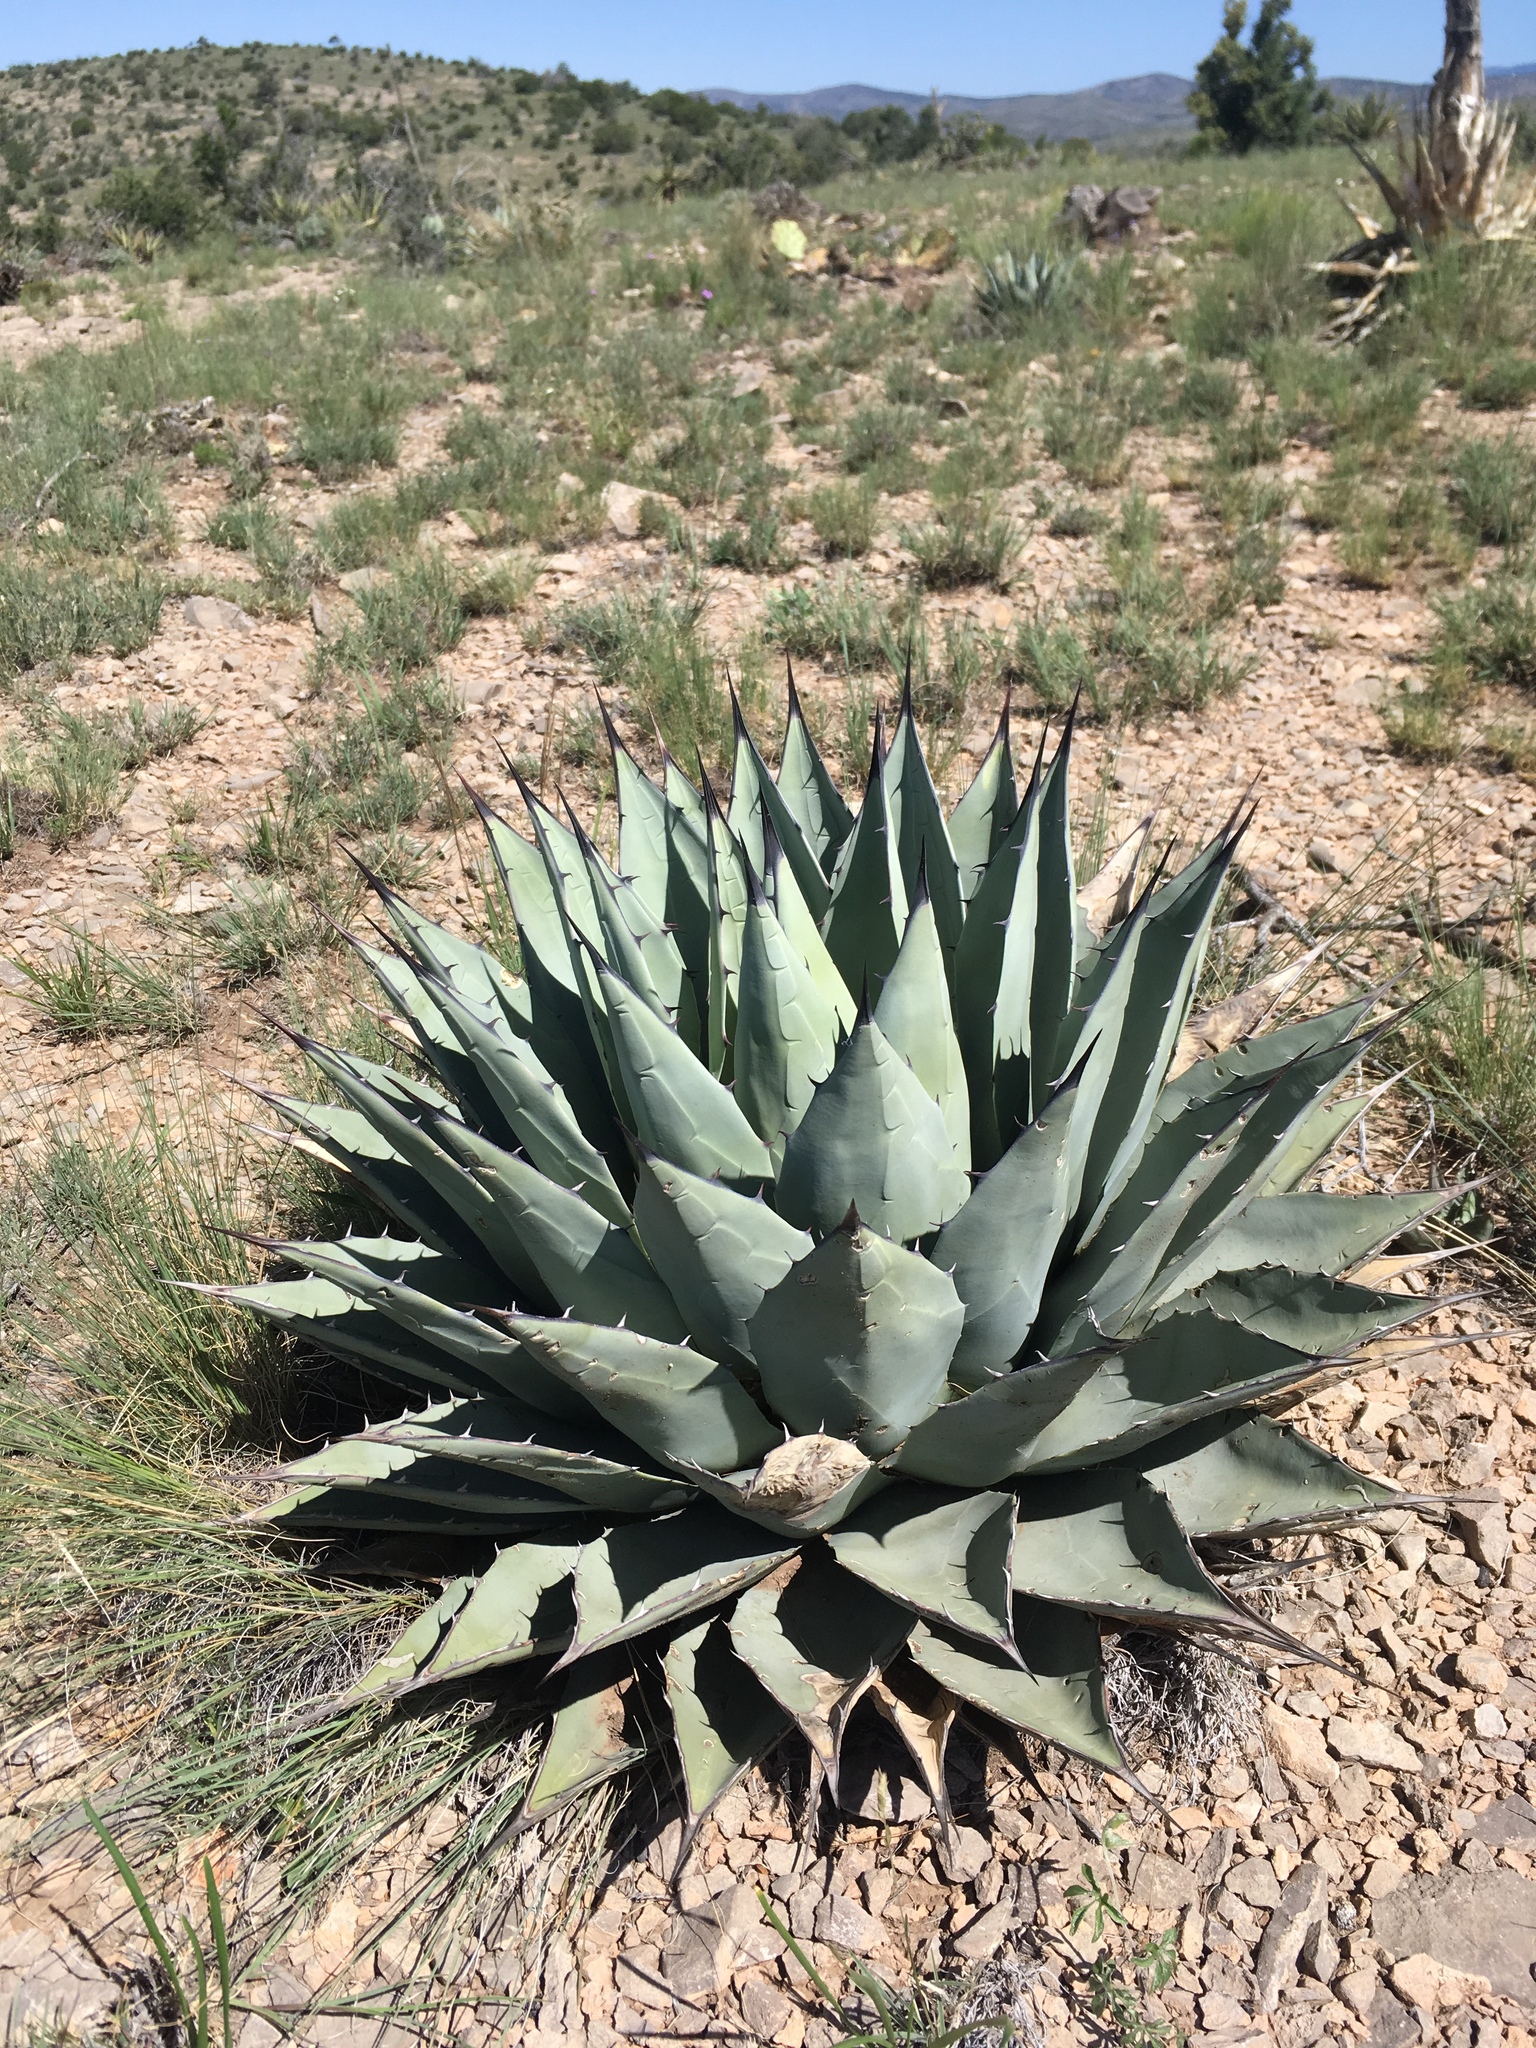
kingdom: Plantae
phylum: Tracheophyta
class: Liliopsida
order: Asparagales
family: Asparagaceae
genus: Agave
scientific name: Agave parryi
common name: Parry's agave
